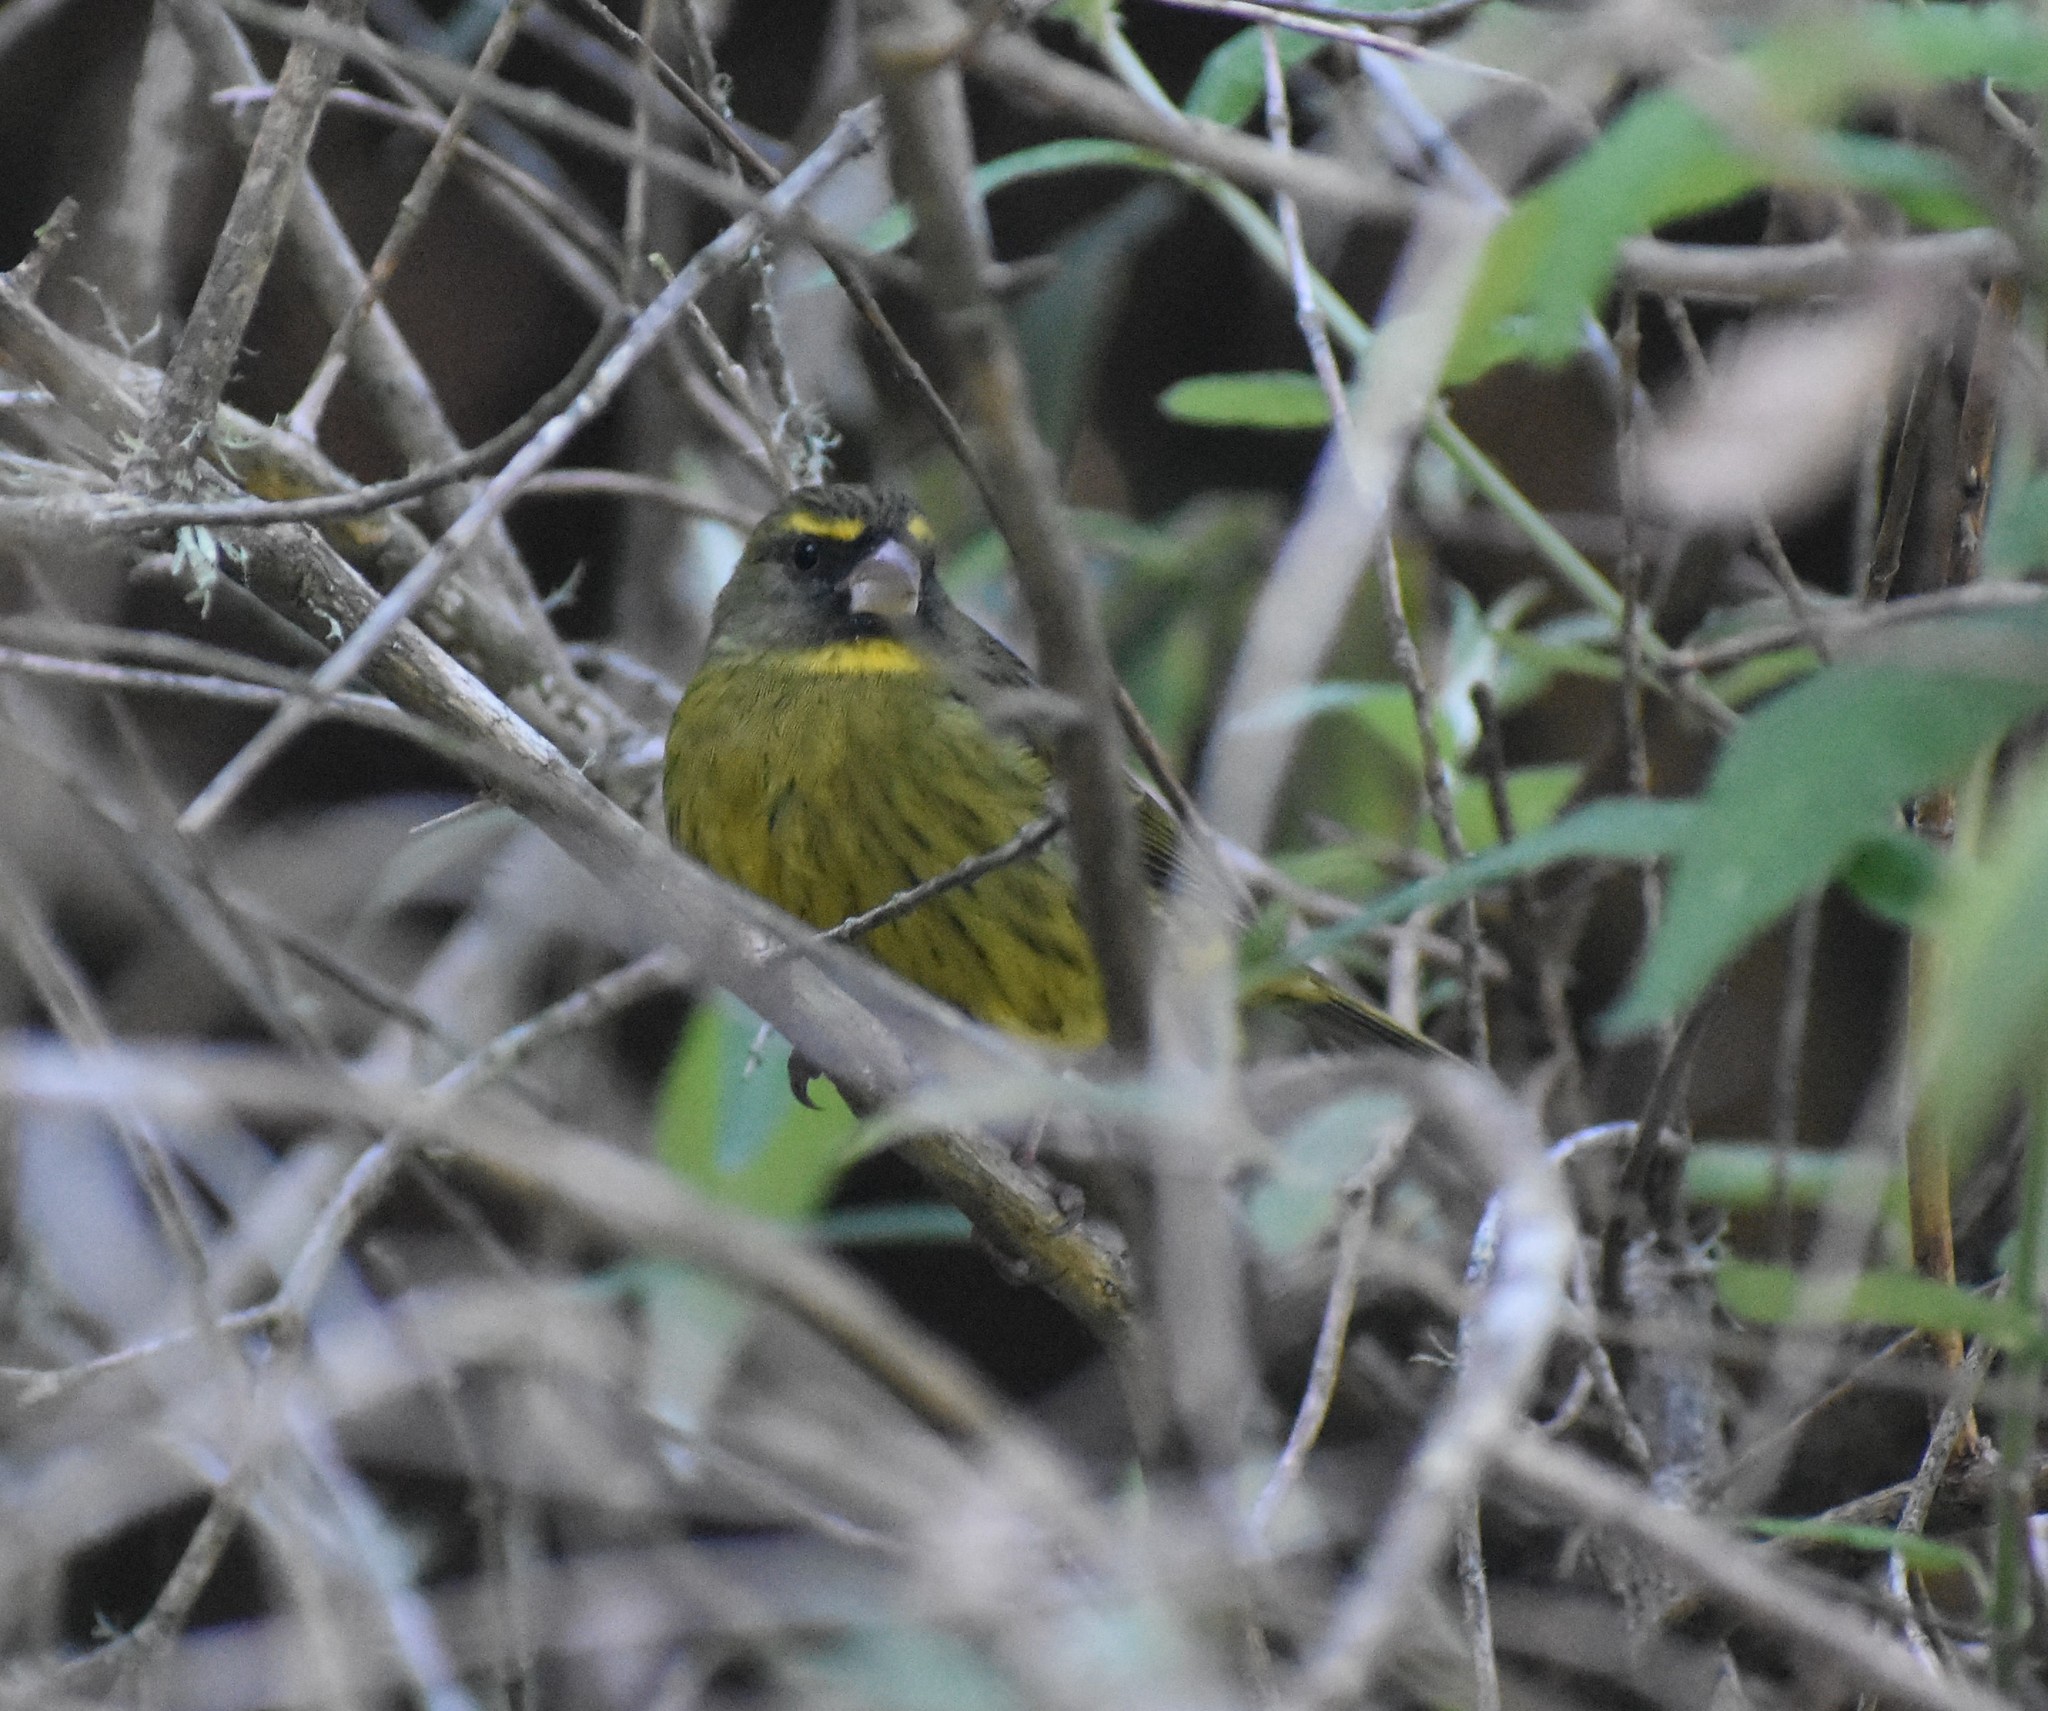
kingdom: Animalia
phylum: Chordata
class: Aves
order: Passeriformes
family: Fringillidae
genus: Crithagra
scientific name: Crithagra scotops
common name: Forest canary
